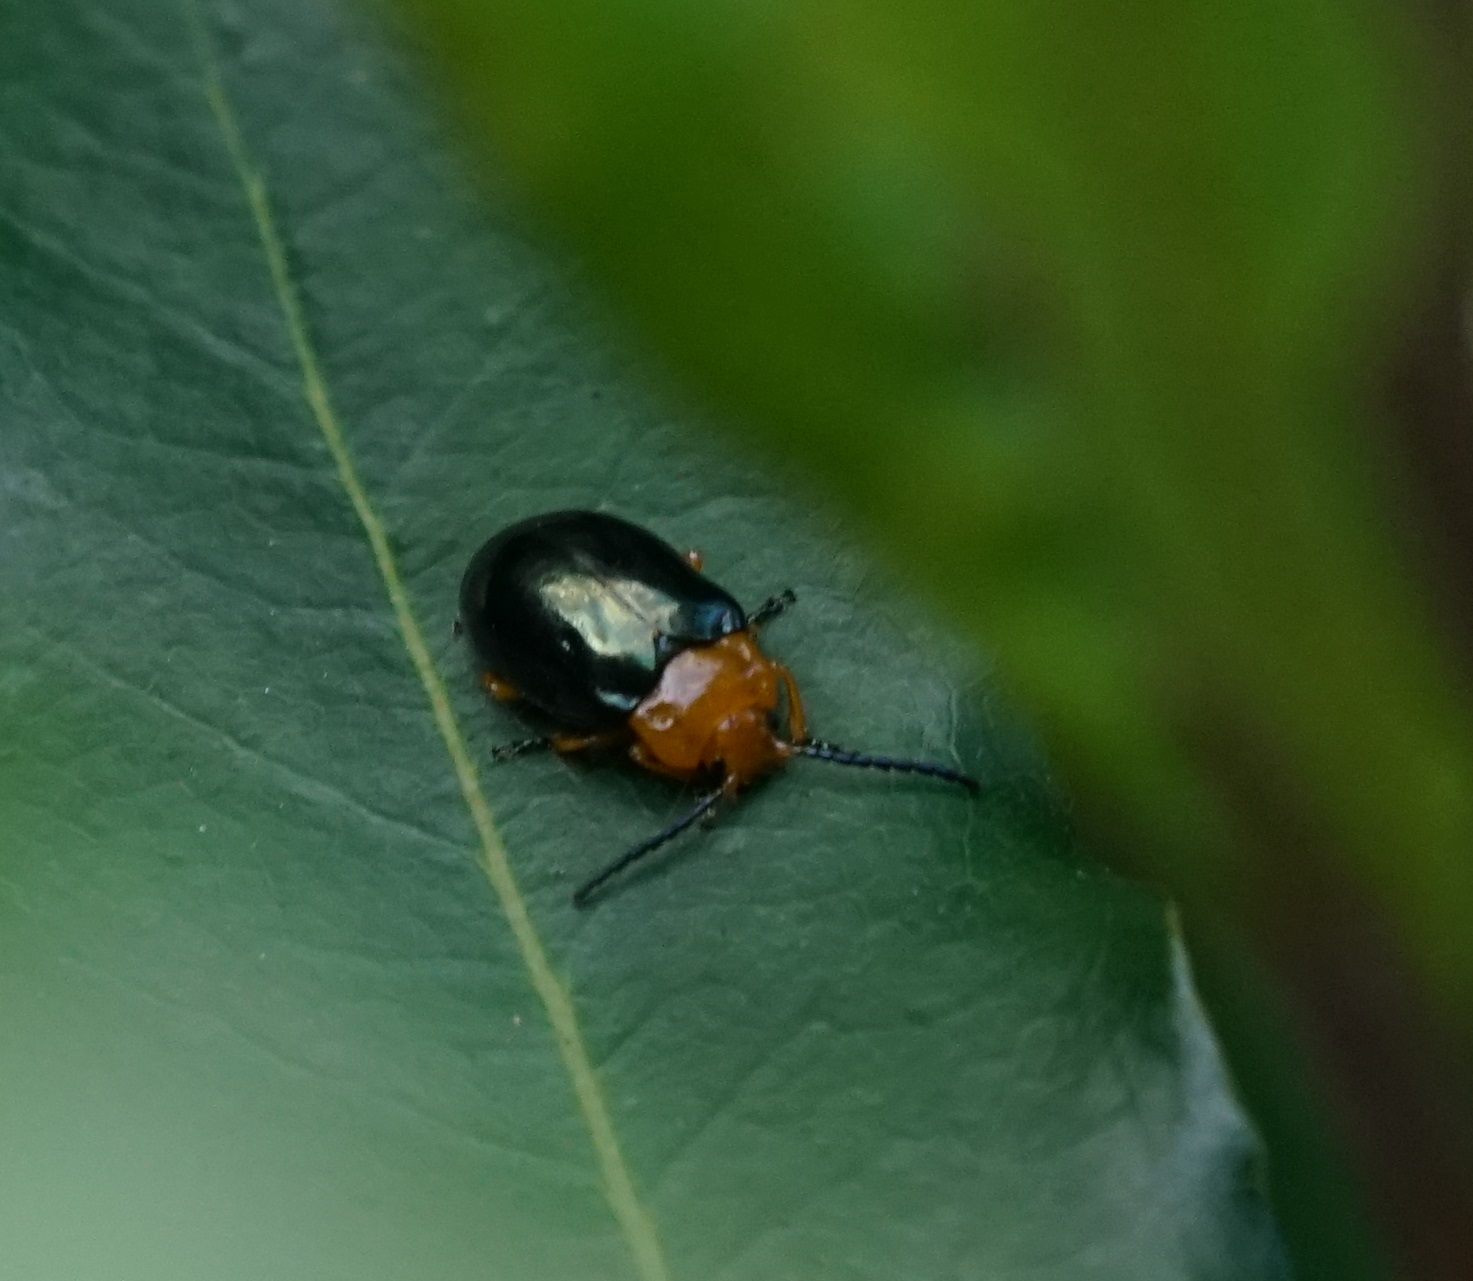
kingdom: Animalia
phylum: Arthropoda
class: Insecta
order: Coleoptera
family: Chrysomelidae
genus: Lamprolina
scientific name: Lamprolina
